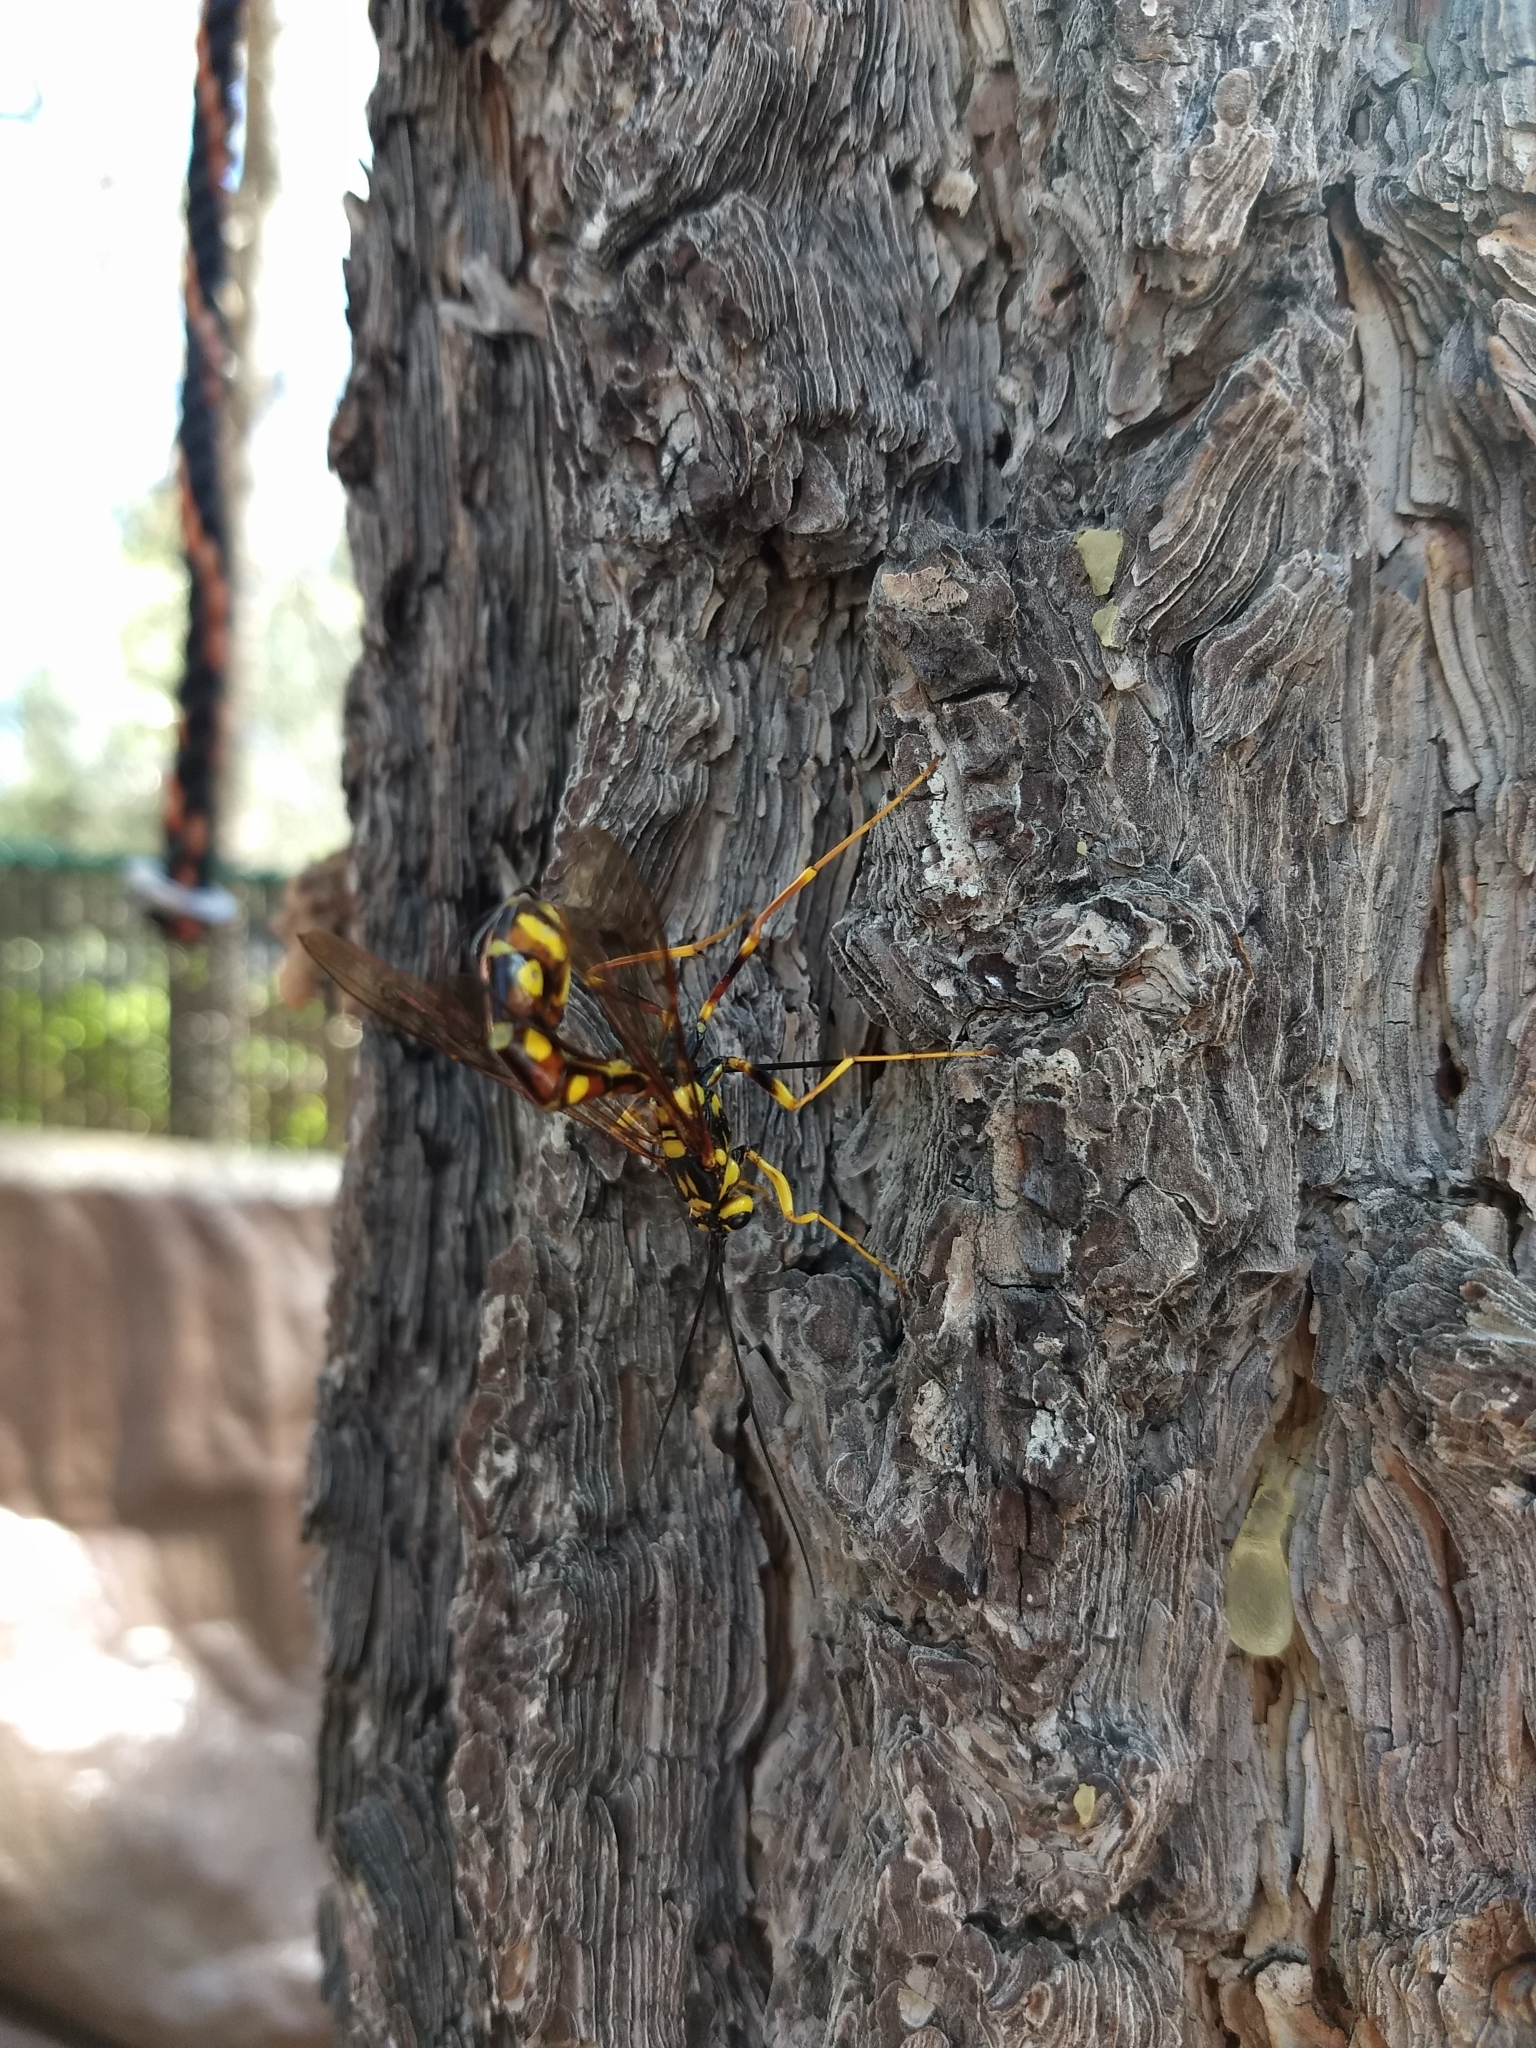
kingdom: Animalia
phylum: Arthropoda
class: Insecta
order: Hymenoptera
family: Ichneumonidae
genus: Megarhyssa
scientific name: Megarhyssa nortoni
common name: Norton's giant ichneumonid wasp
